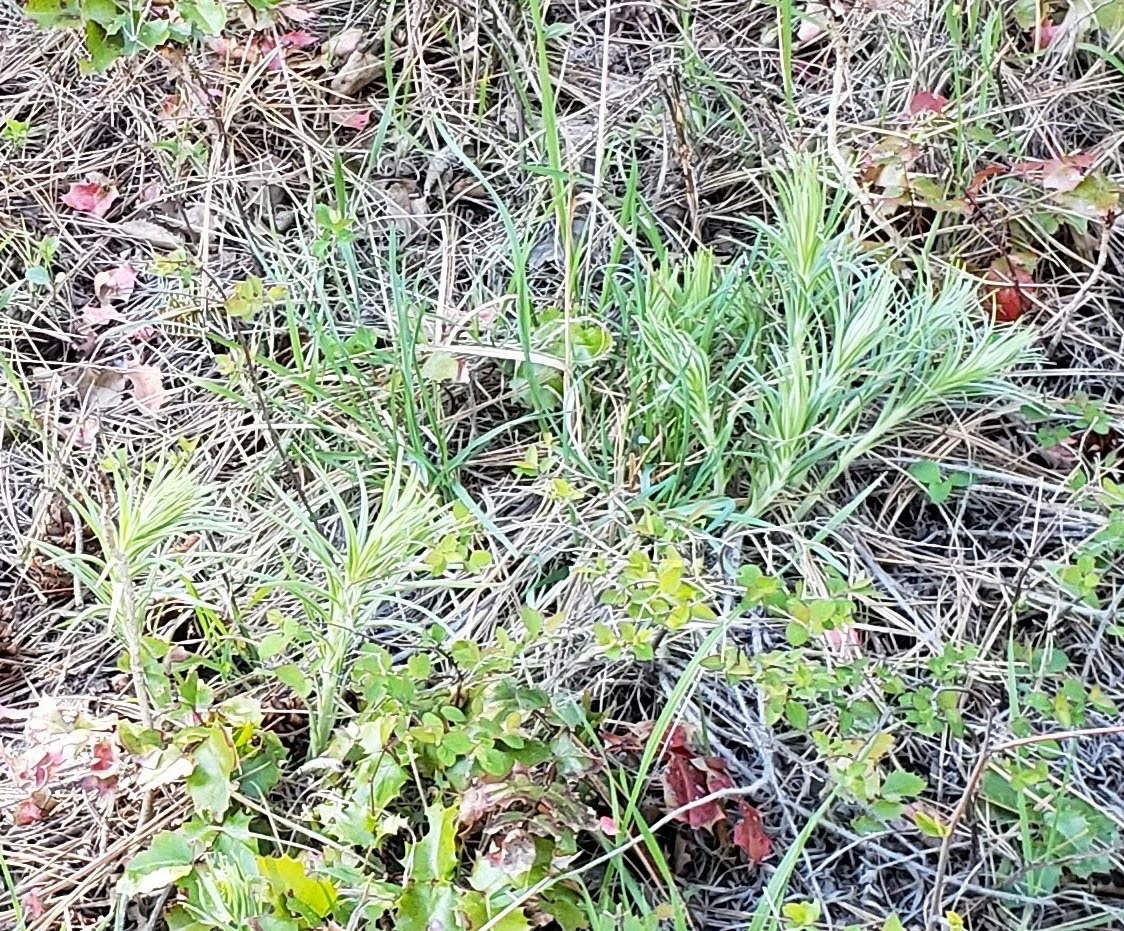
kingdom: Plantae
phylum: Tracheophyta
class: Magnoliopsida
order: Boraginales
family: Boraginaceae
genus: Lithospermum
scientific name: Lithospermum ruderale
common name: Western gromwell
